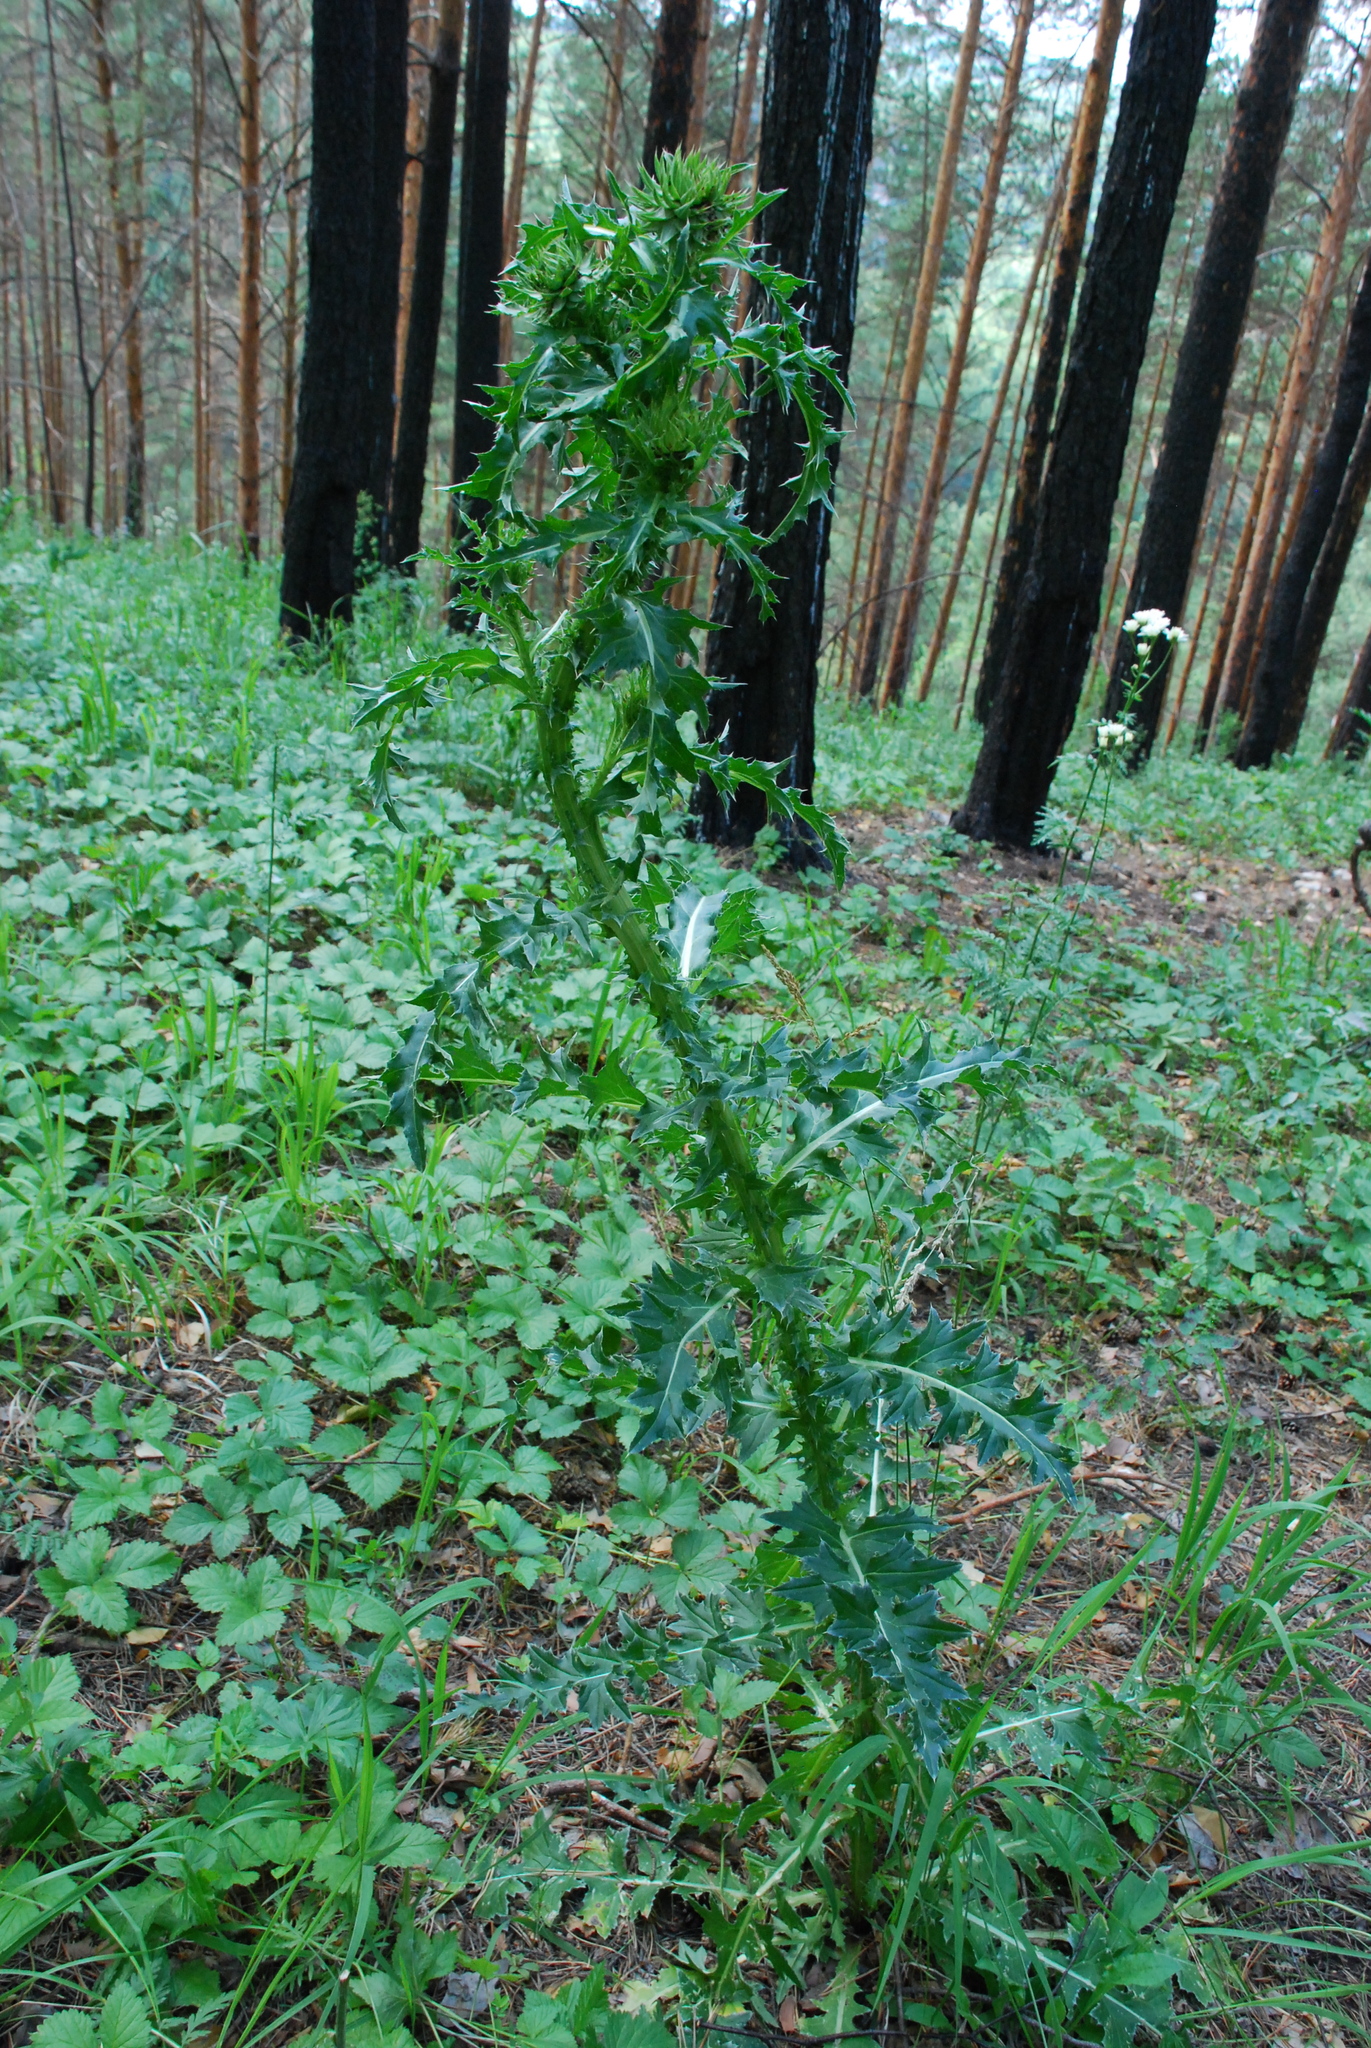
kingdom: Plantae
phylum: Tracheophyta
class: Magnoliopsida
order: Asterales
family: Asteraceae
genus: Carduus
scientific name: Carduus nutans
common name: Musk thistle
